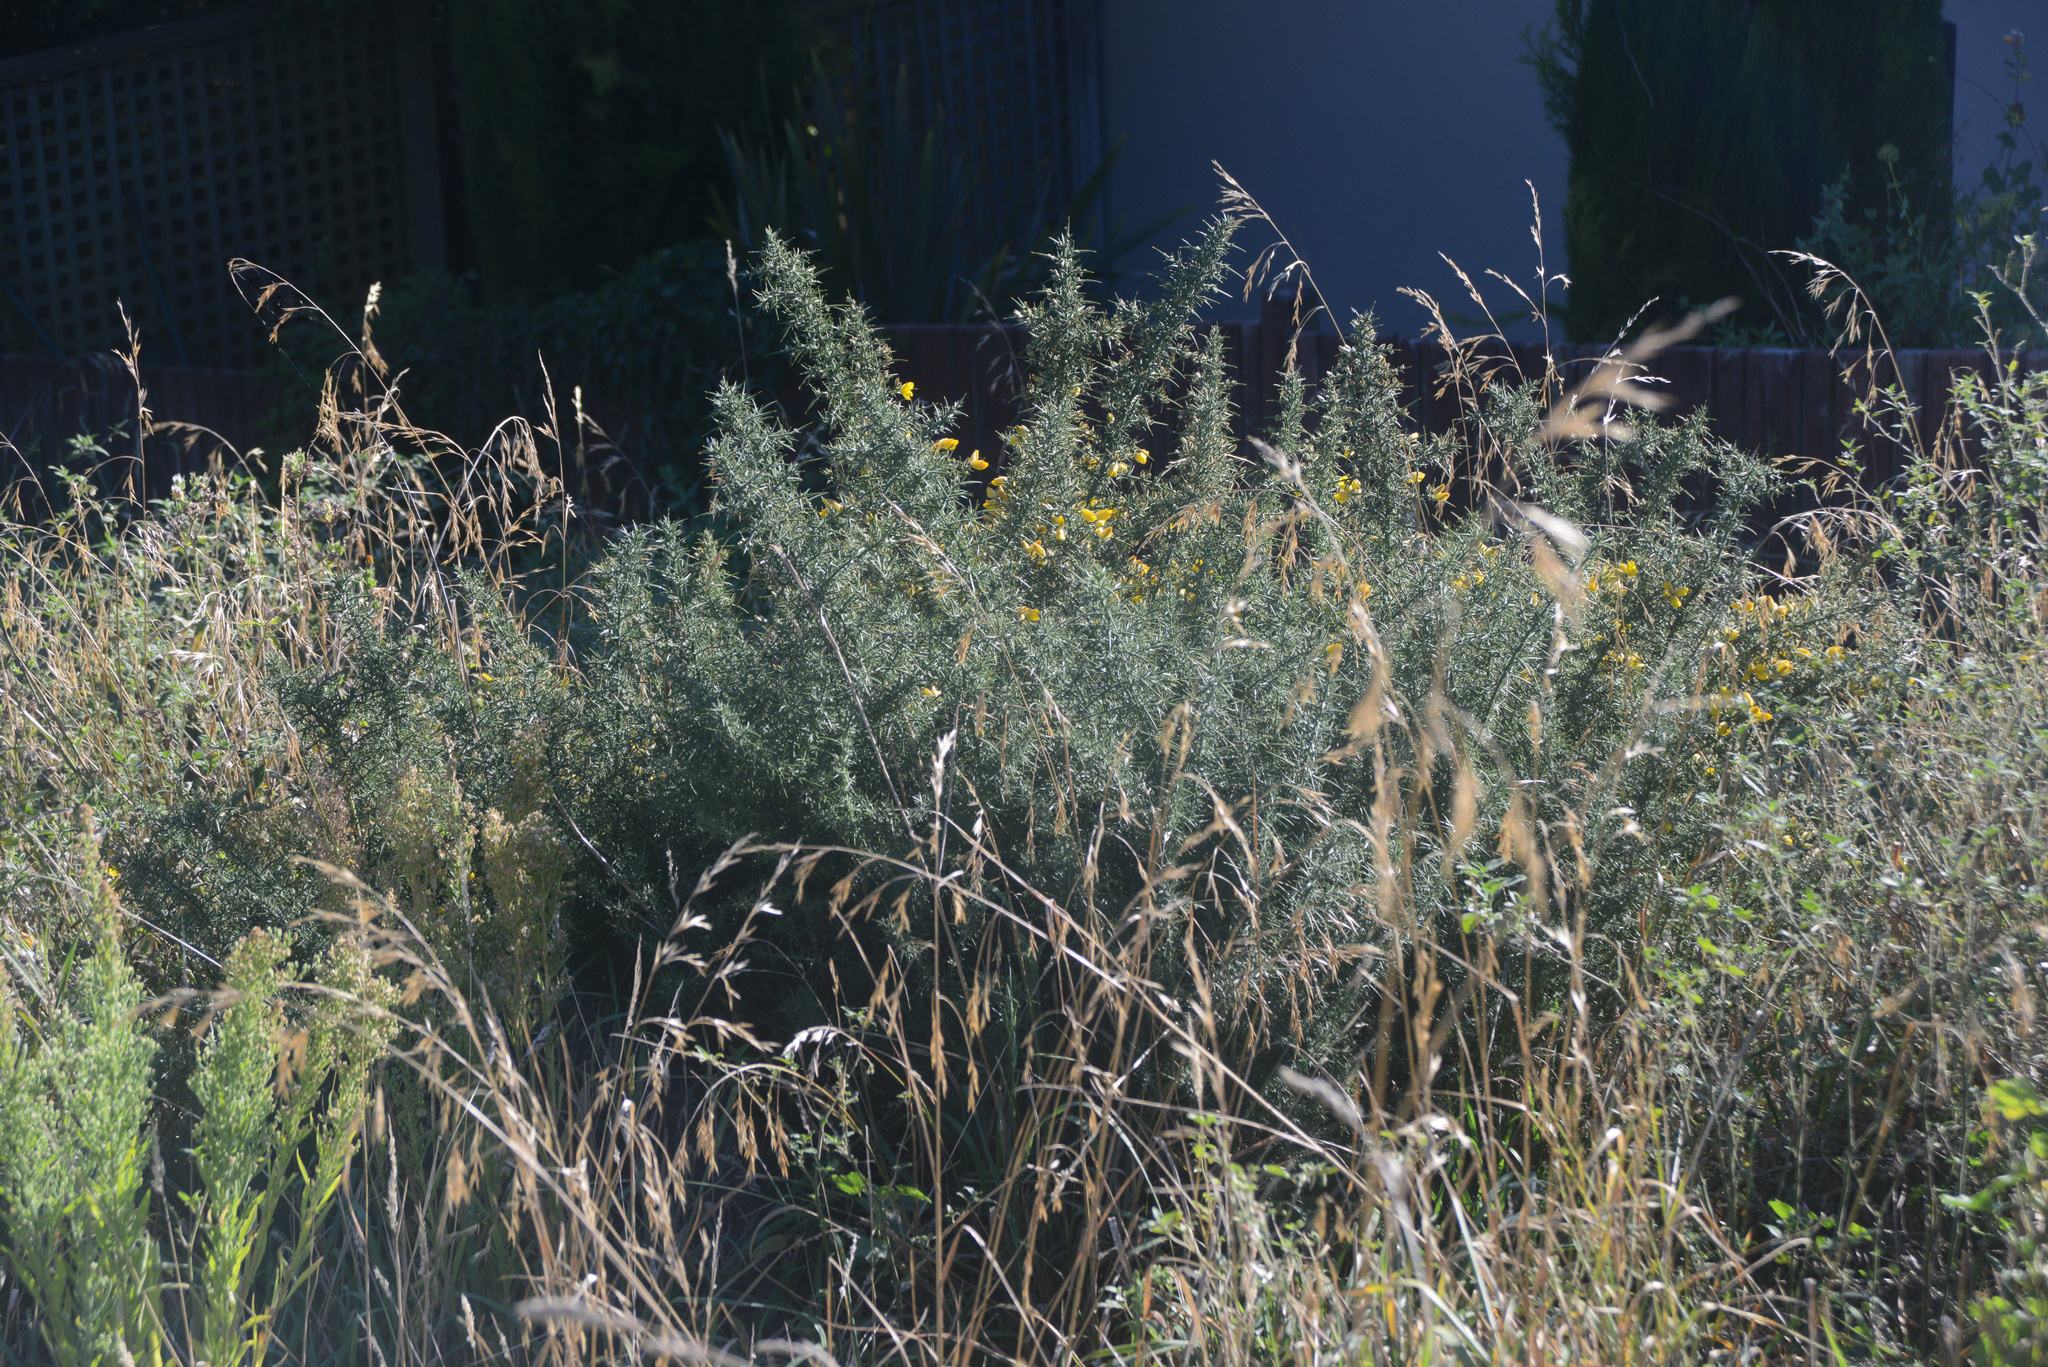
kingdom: Plantae
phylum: Tracheophyta
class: Magnoliopsida
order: Fabales
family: Fabaceae
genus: Ulex
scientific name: Ulex europaeus
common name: Common gorse
